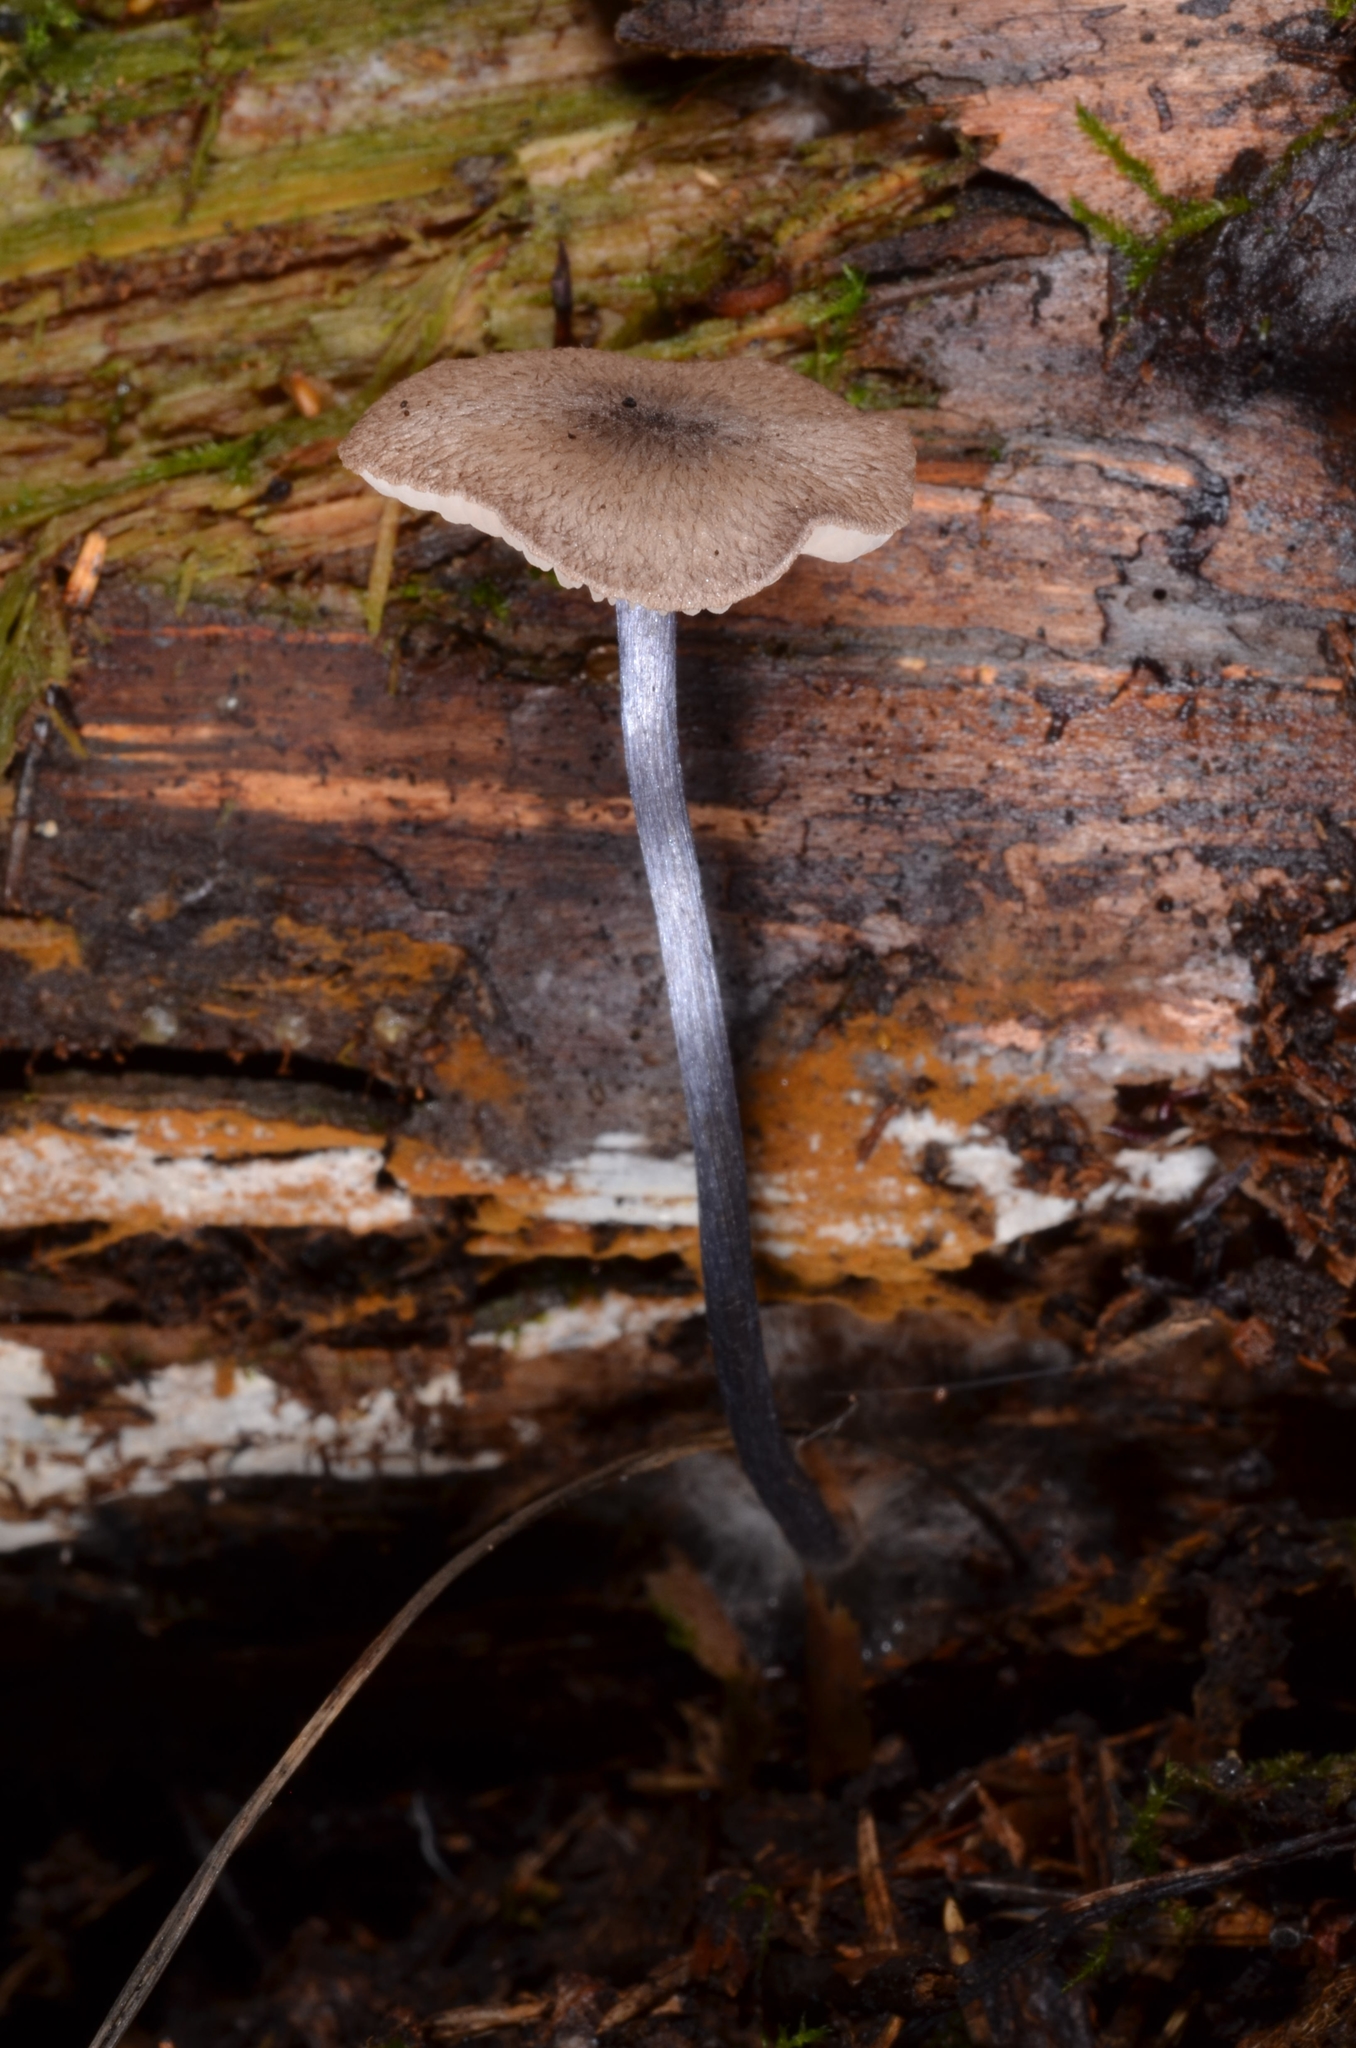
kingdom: Fungi
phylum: Basidiomycota
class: Agaricomycetes
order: Agaricales
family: Entolomataceae
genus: Entoloma
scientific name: Entoloma lampropus
